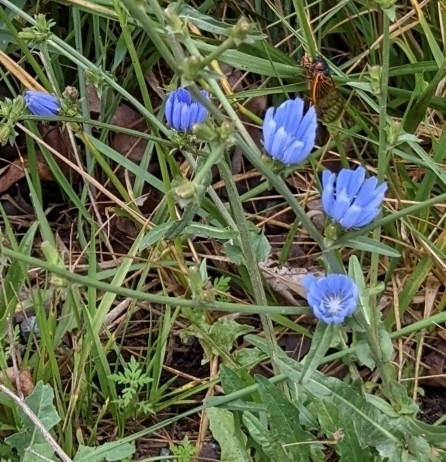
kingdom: Plantae
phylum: Tracheophyta
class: Magnoliopsida
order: Asterales
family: Asteraceae
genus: Cichorium
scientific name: Cichorium intybus
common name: Chicory
